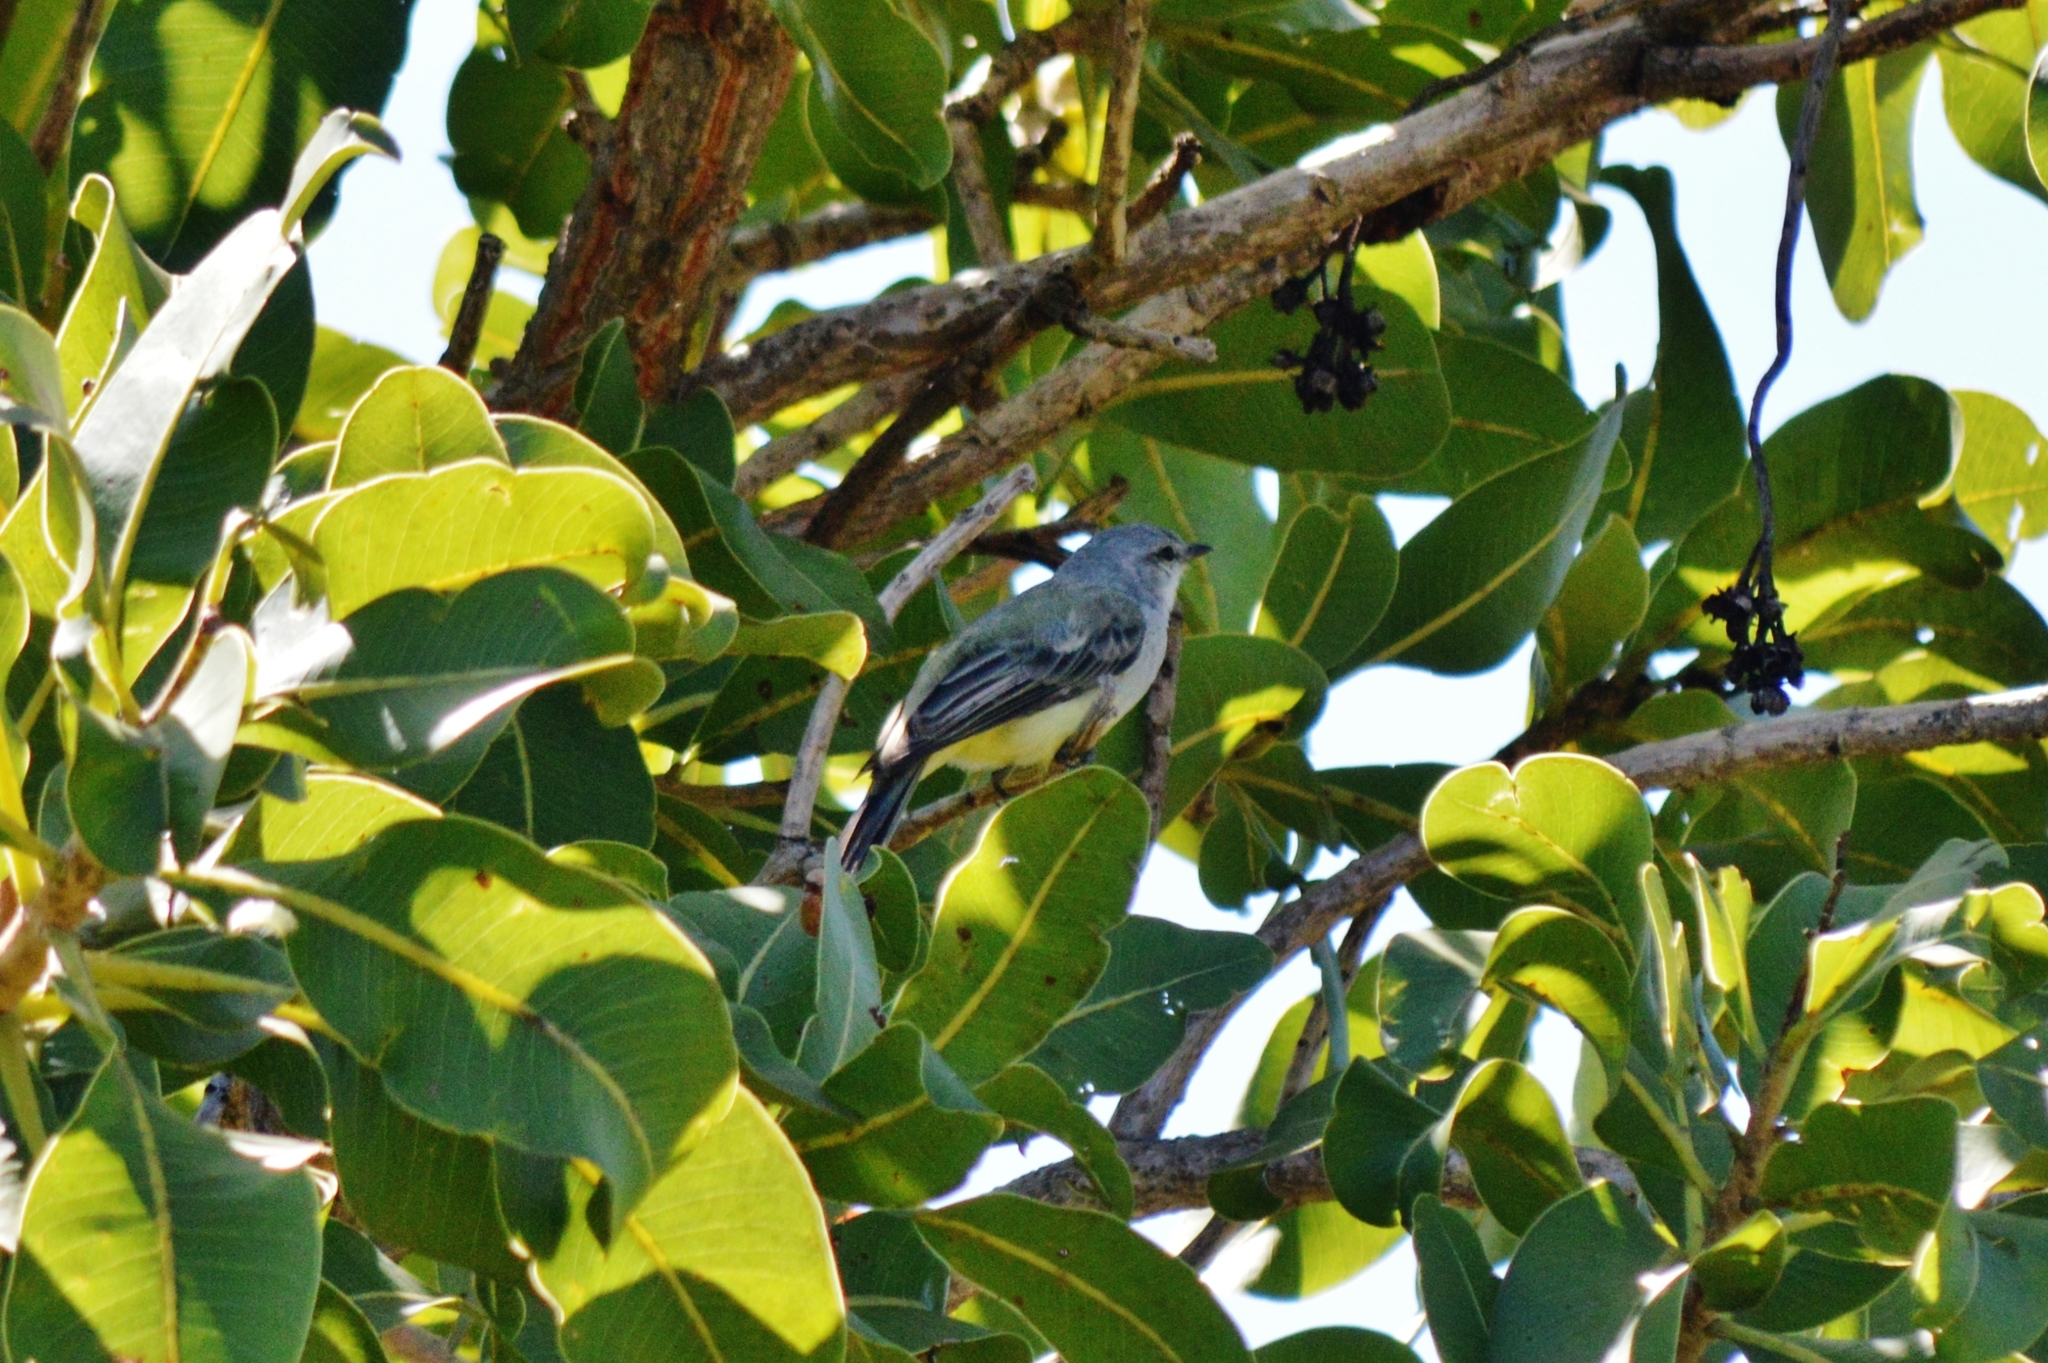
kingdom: Animalia
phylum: Chordata
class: Aves
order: Passeriformes
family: Tyrannidae
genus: Sublegatus
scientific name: Sublegatus modestus
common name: Southern scrub flycatcher
